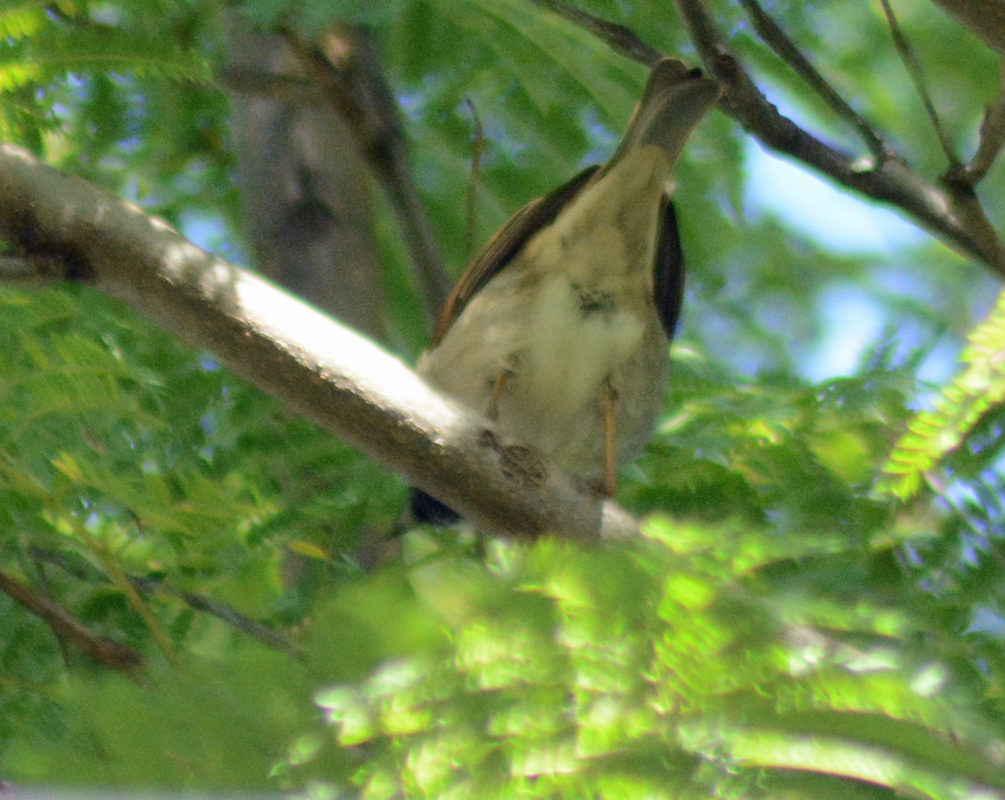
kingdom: Animalia
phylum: Chordata
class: Aves
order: Passeriformes
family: Passeridae
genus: Passer
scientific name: Passer domesticus
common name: House sparrow
